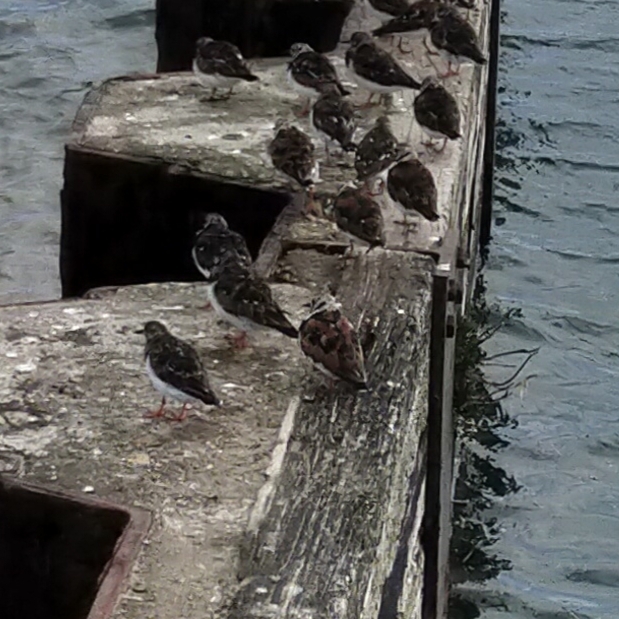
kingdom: Animalia
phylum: Chordata
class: Aves
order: Charadriiformes
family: Scolopacidae
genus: Arenaria
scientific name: Arenaria interpres
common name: Ruddy turnstone
